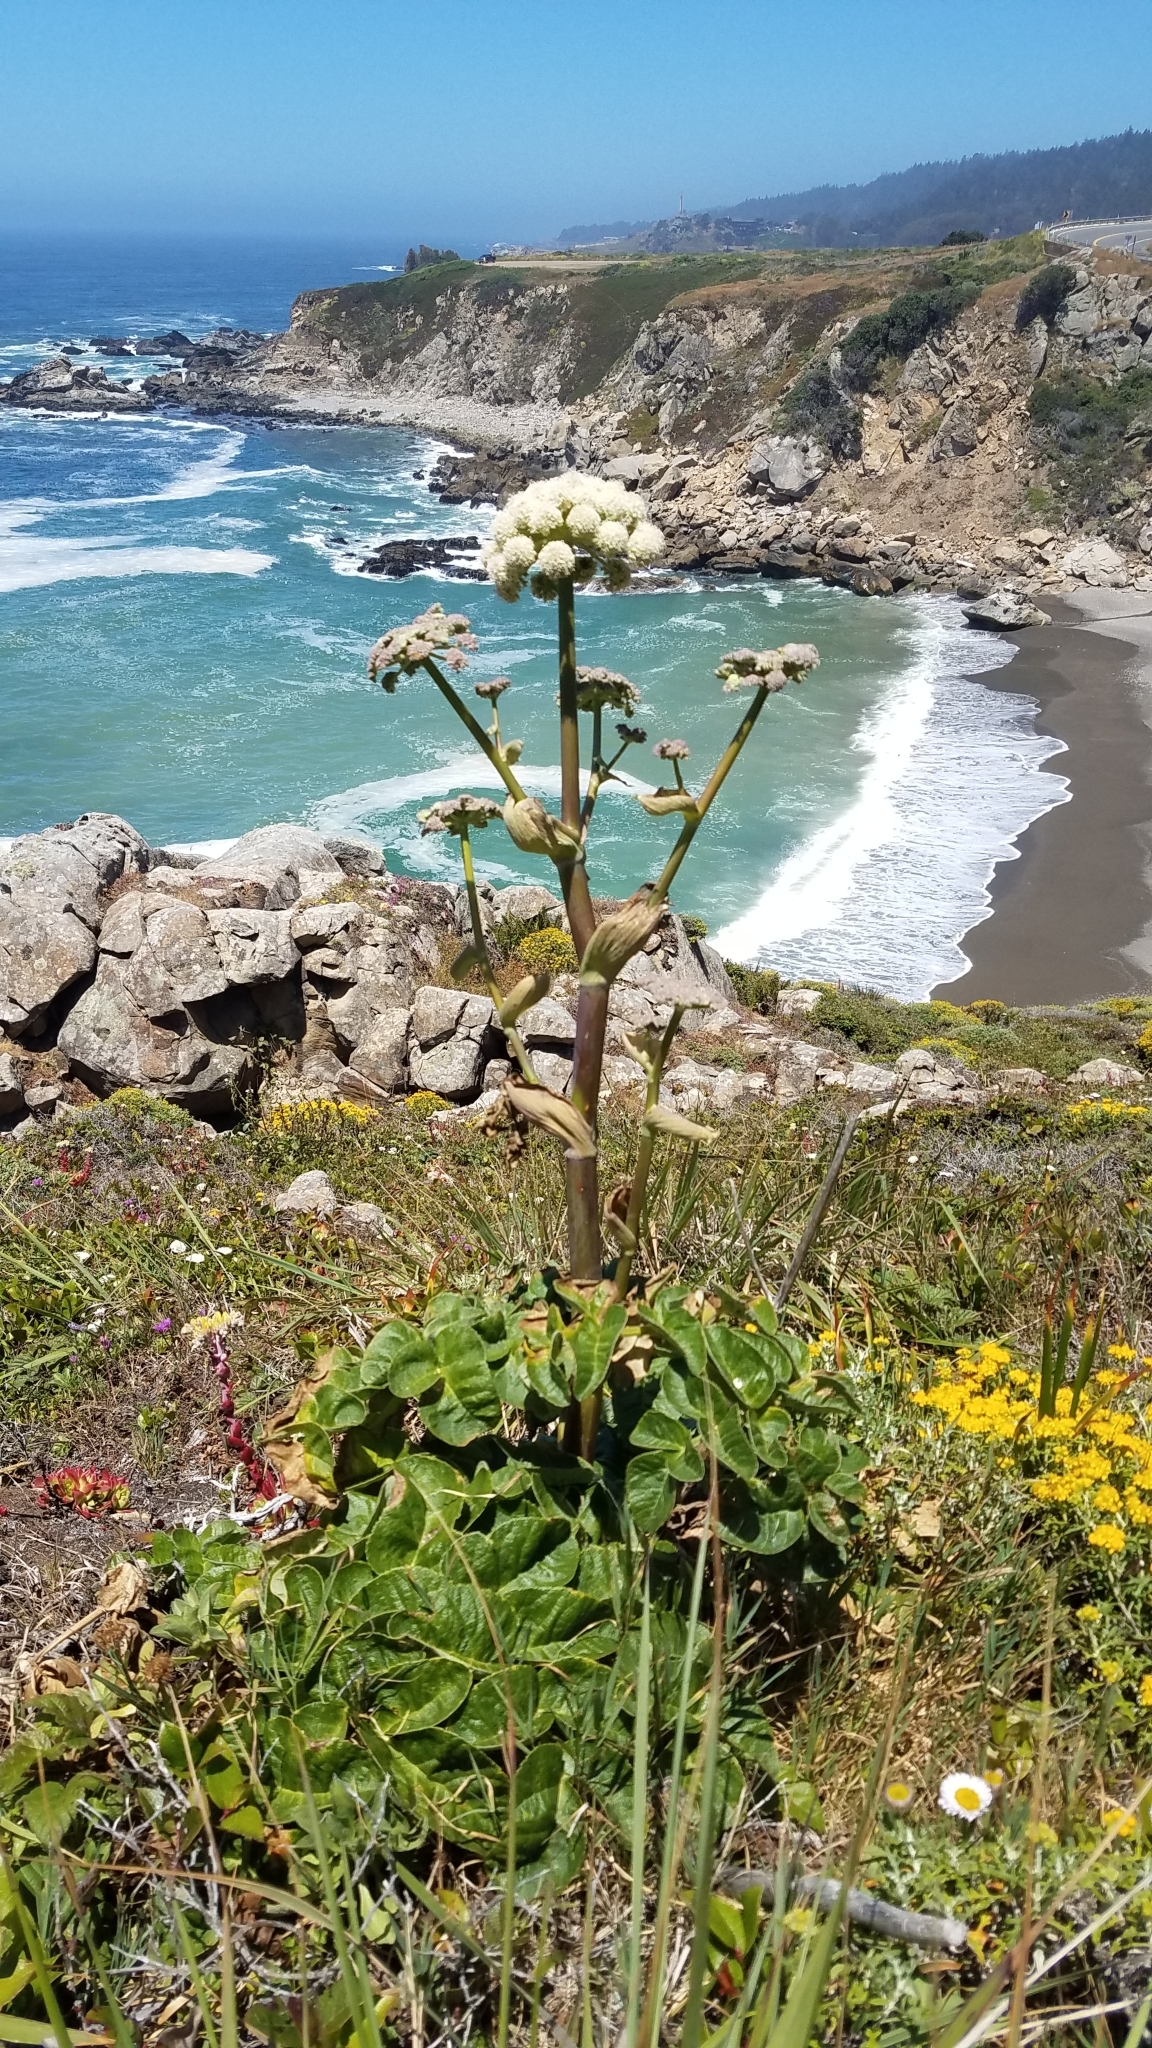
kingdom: Plantae
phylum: Tracheophyta
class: Magnoliopsida
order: Apiales
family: Apiaceae
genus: Angelica
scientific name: Angelica hendersonii
